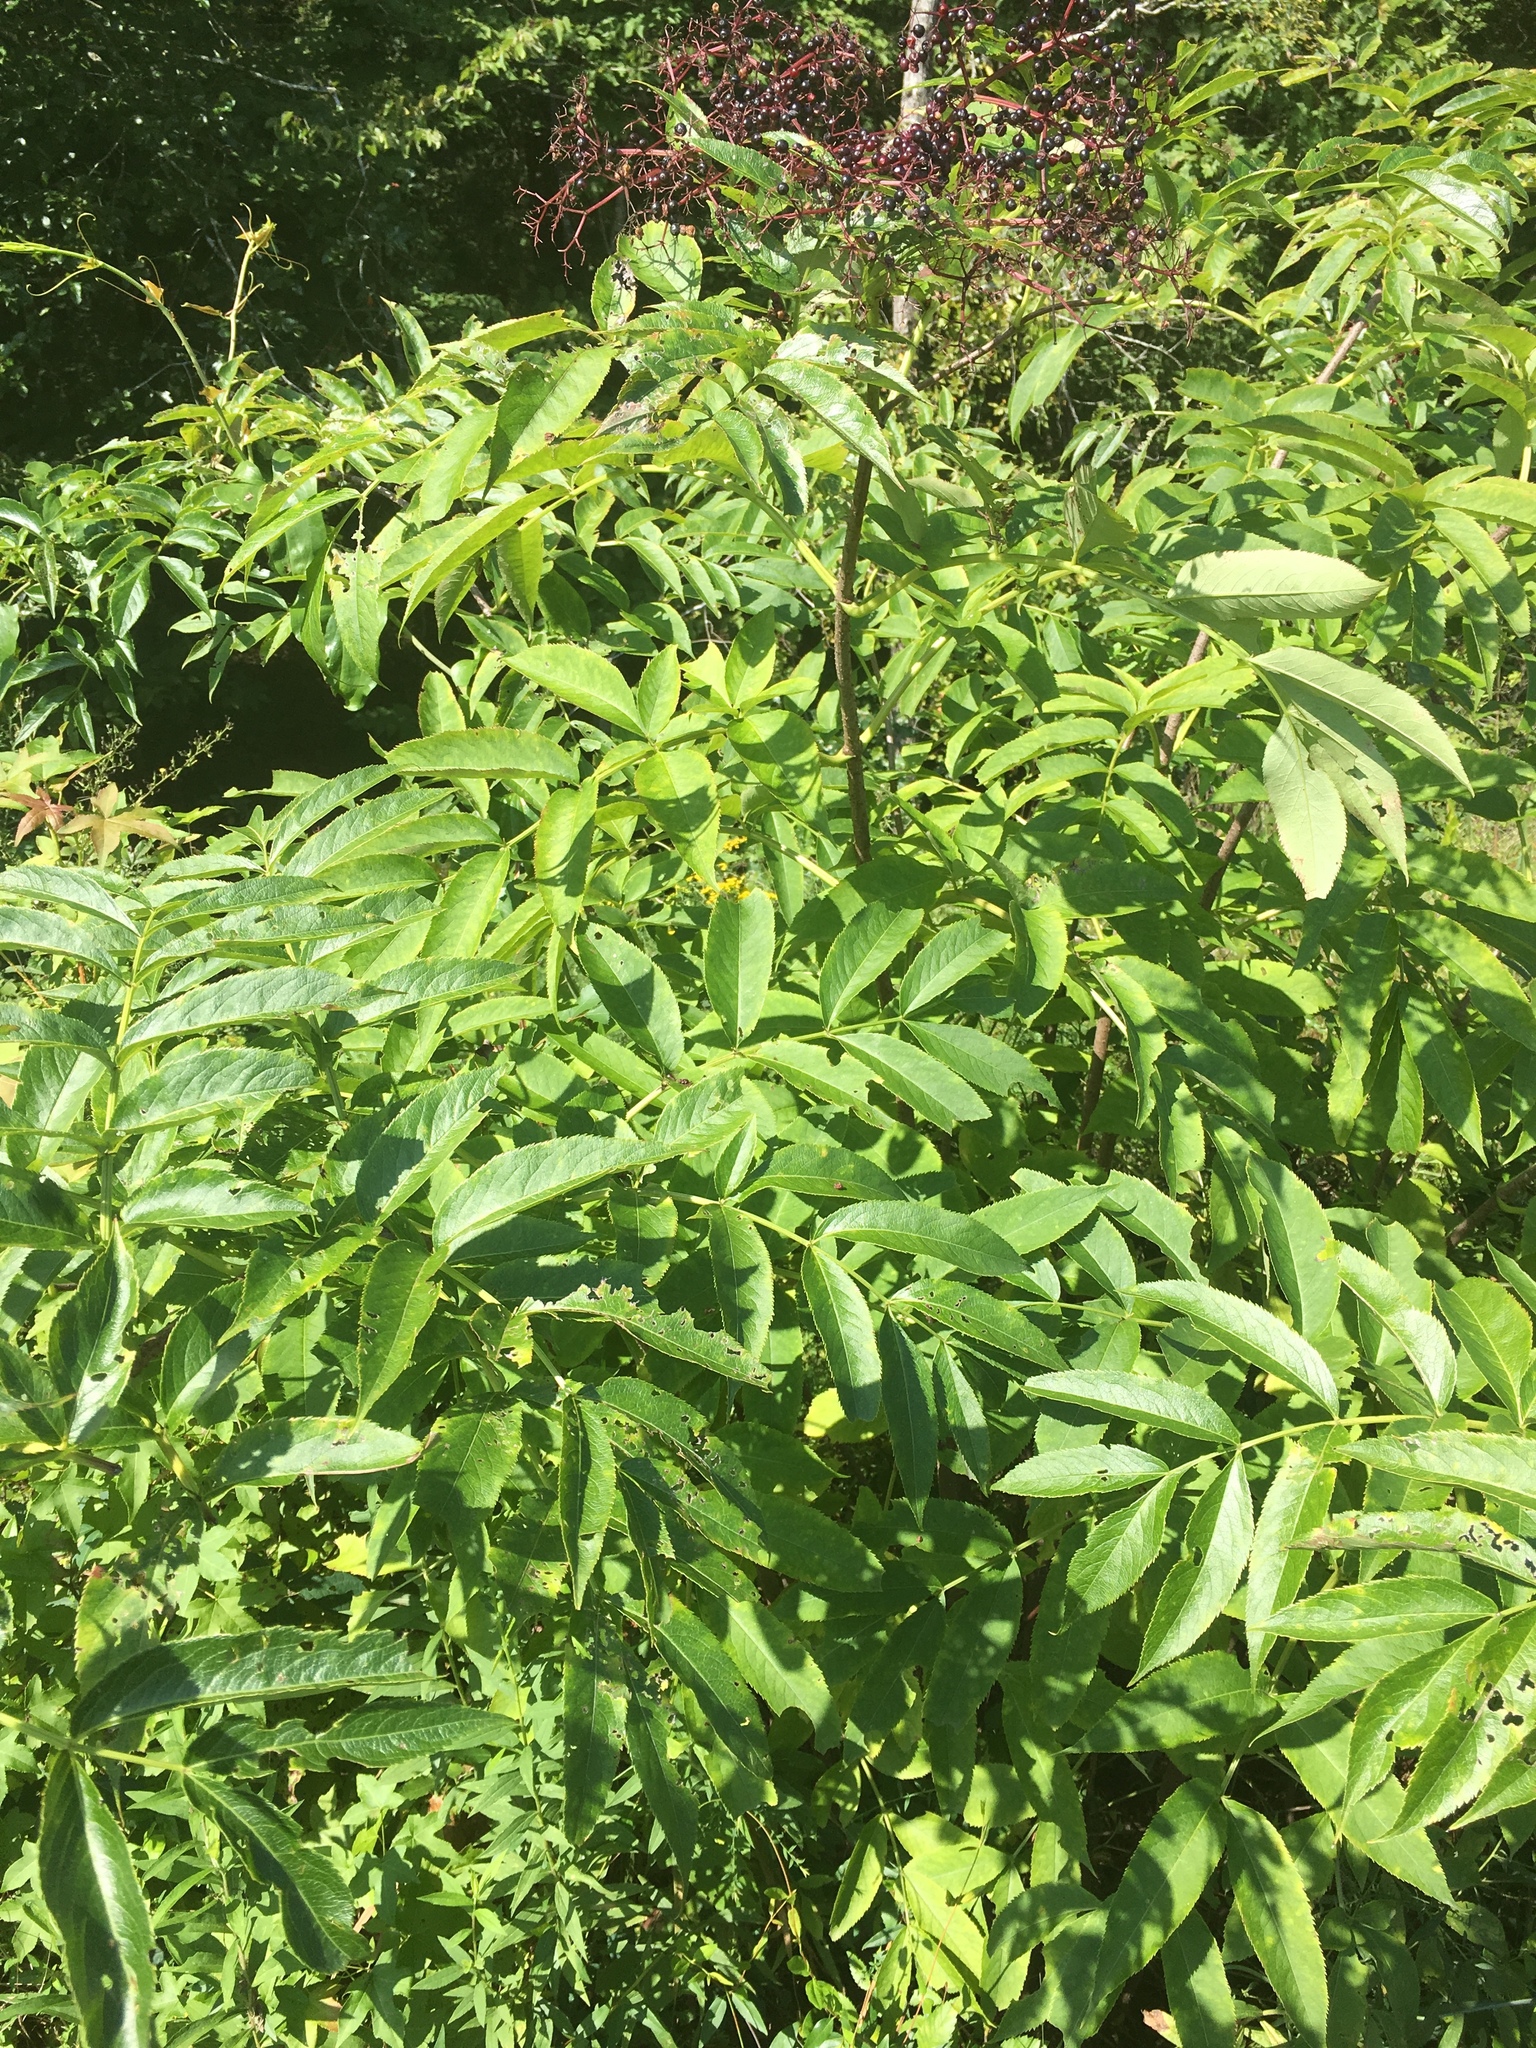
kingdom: Plantae
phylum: Tracheophyta
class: Magnoliopsida
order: Dipsacales
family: Viburnaceae
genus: Sambucus
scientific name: Sambucus canadensis
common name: American elder
